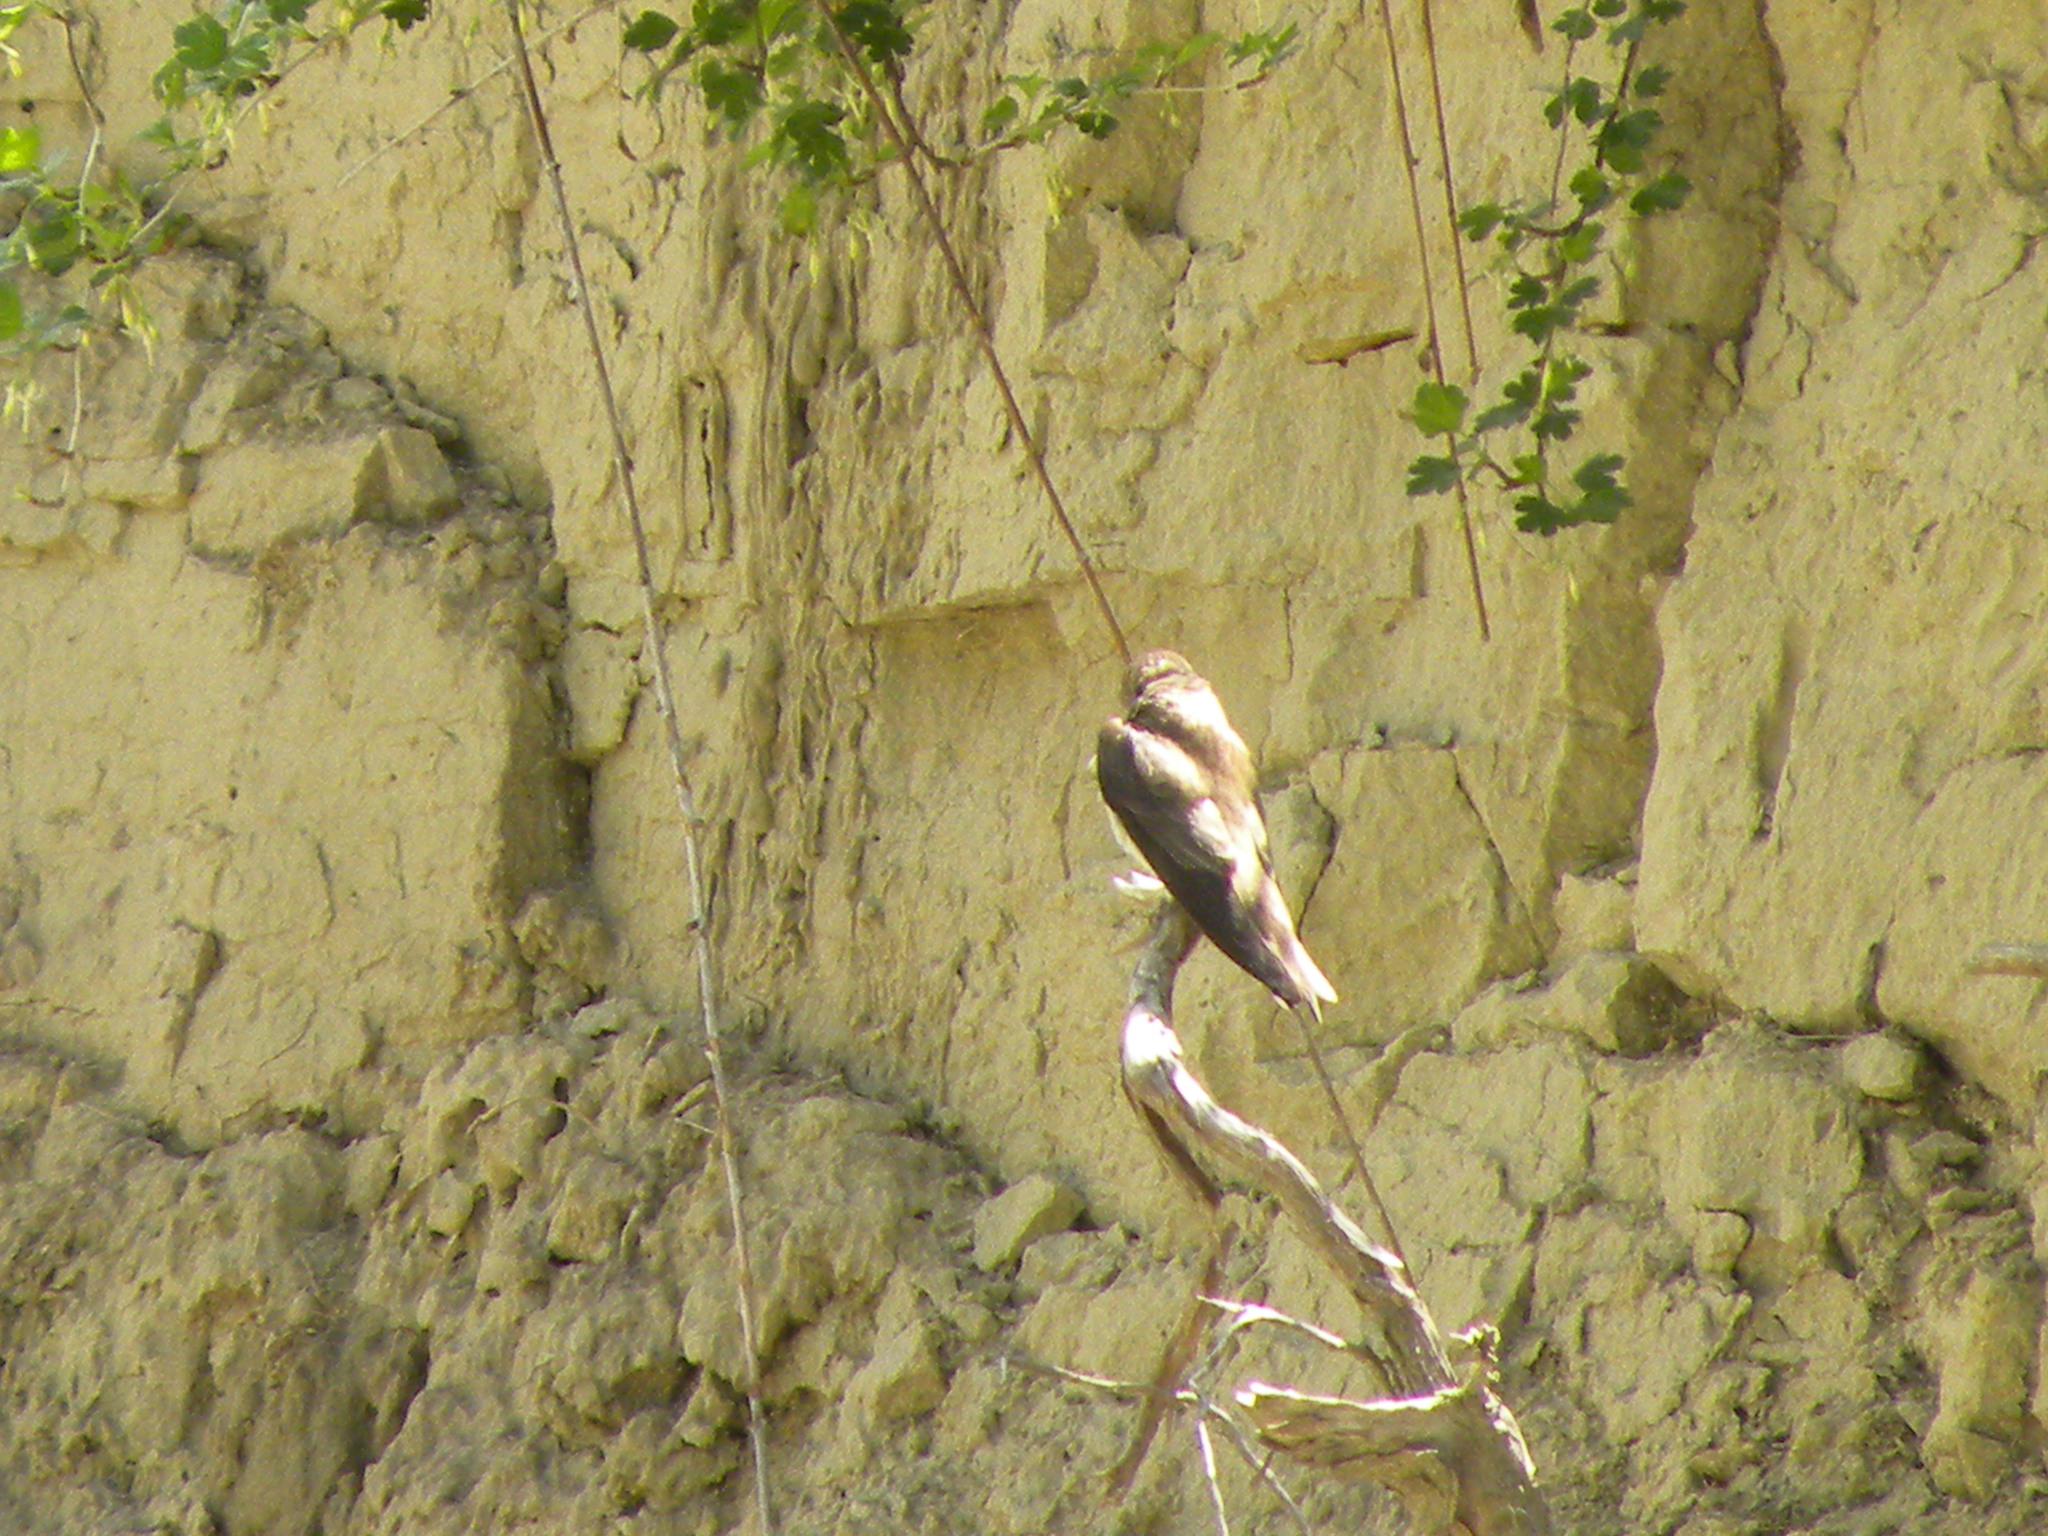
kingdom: Animalia
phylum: Chordata
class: Aves
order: Passeriformes
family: Hirundinidae
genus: Riparia
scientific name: Riparia riparia
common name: Sand martin
